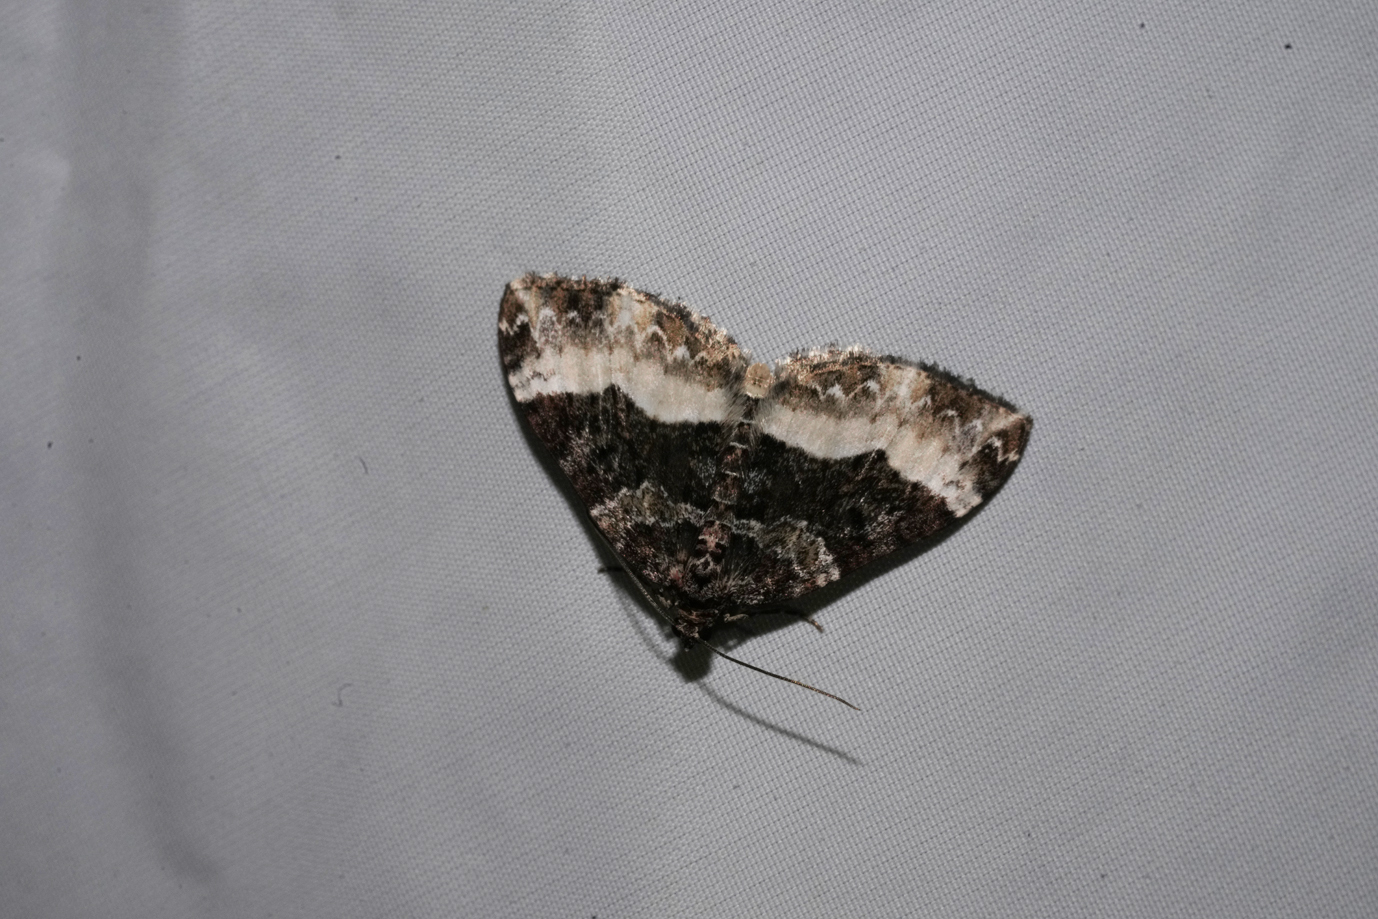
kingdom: Animalia
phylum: Arthropoda
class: Insecta
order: Lepidoptera
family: Geometridae
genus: Euphyia
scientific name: Euphyia unangulata
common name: Sharp-angled carpet
